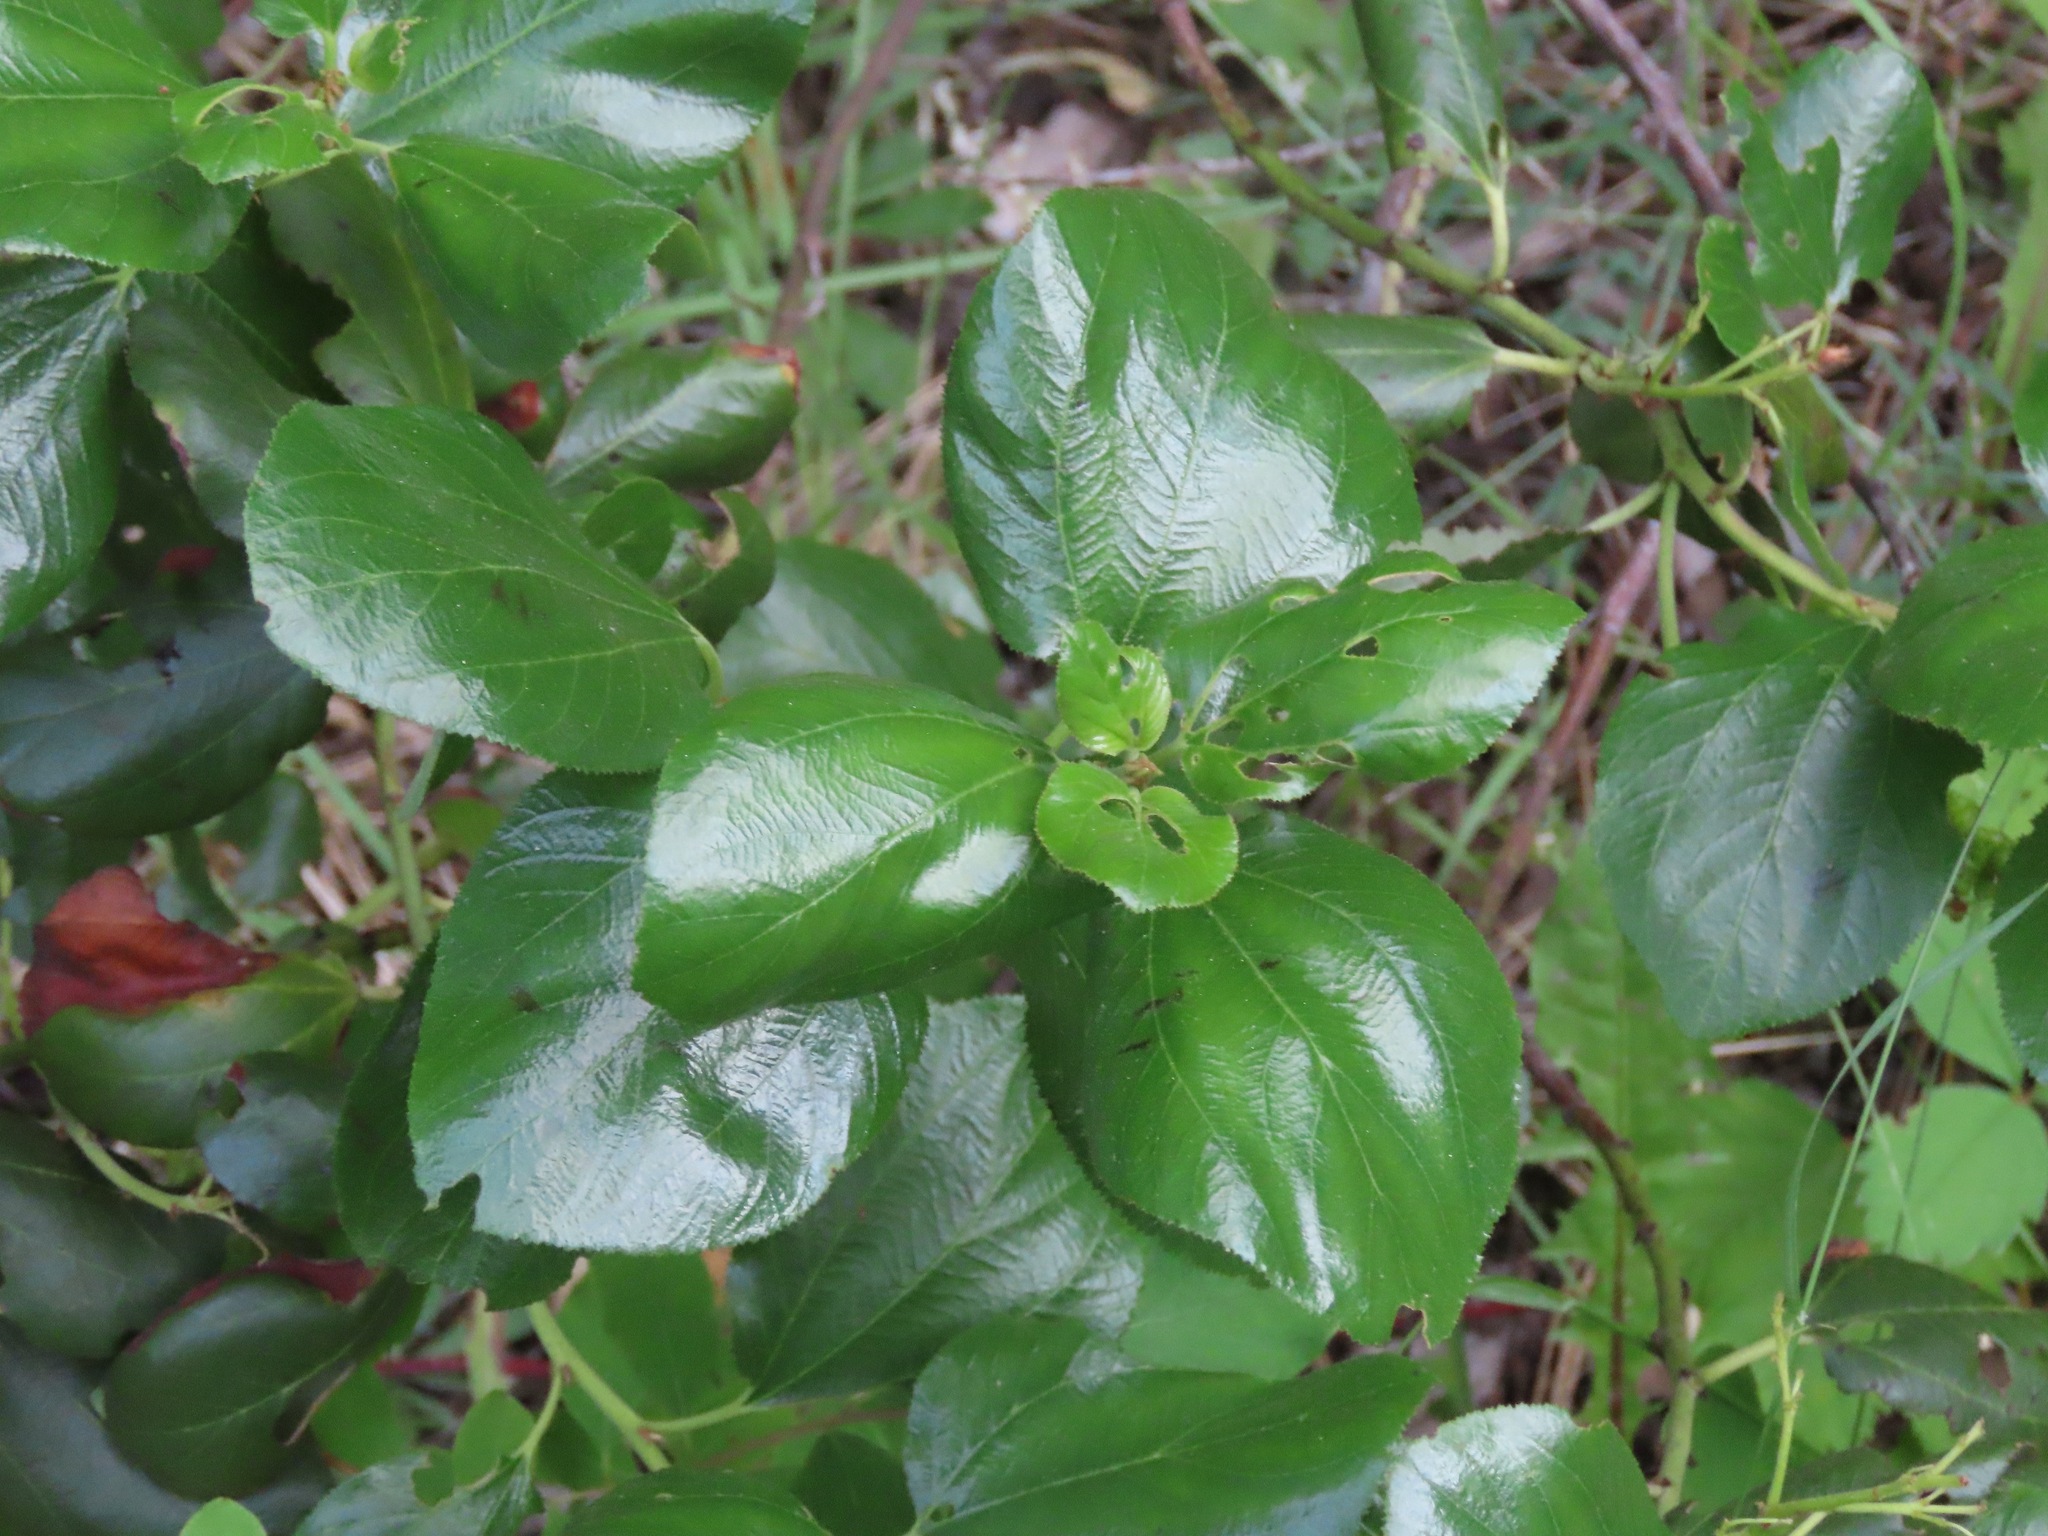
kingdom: Plantae
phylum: Tracheophyta
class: Magnoliopsida
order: Rosales
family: Rhamnaceae
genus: Ceanothus
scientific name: Ceanothus velutinus
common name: Snowbrush
